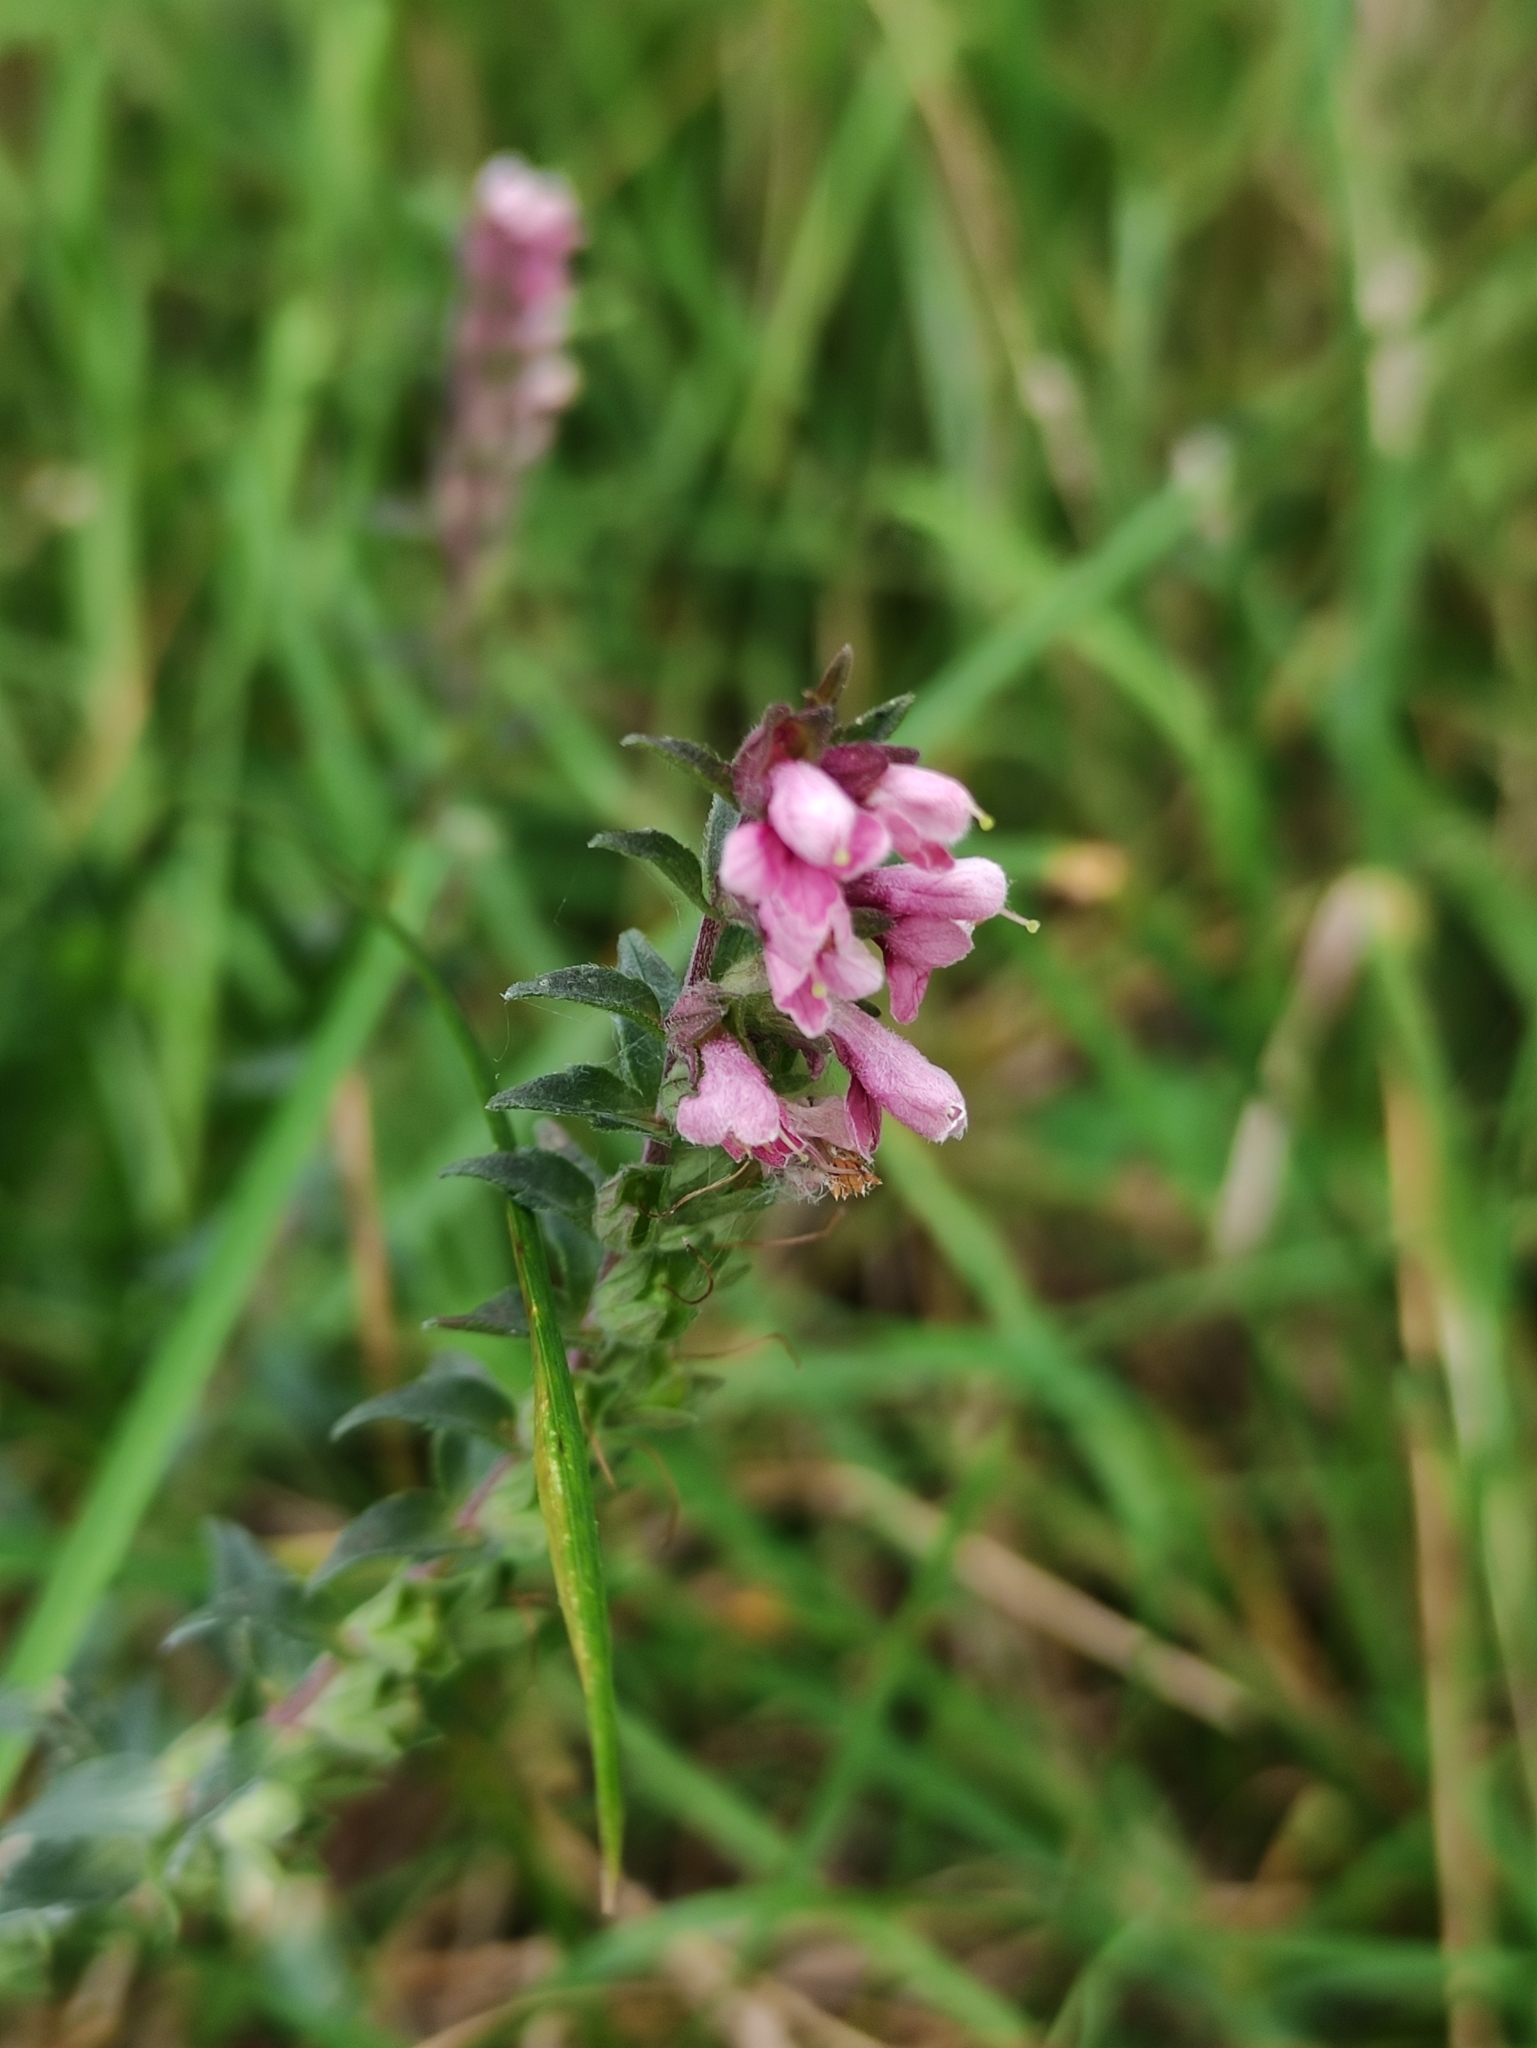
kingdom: Plantae
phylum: Tracheophyta
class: Magnoliopsida
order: Lamiales
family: Orobanchaceae
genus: Odontites
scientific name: Odontites vulgaris
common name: Broomrape
